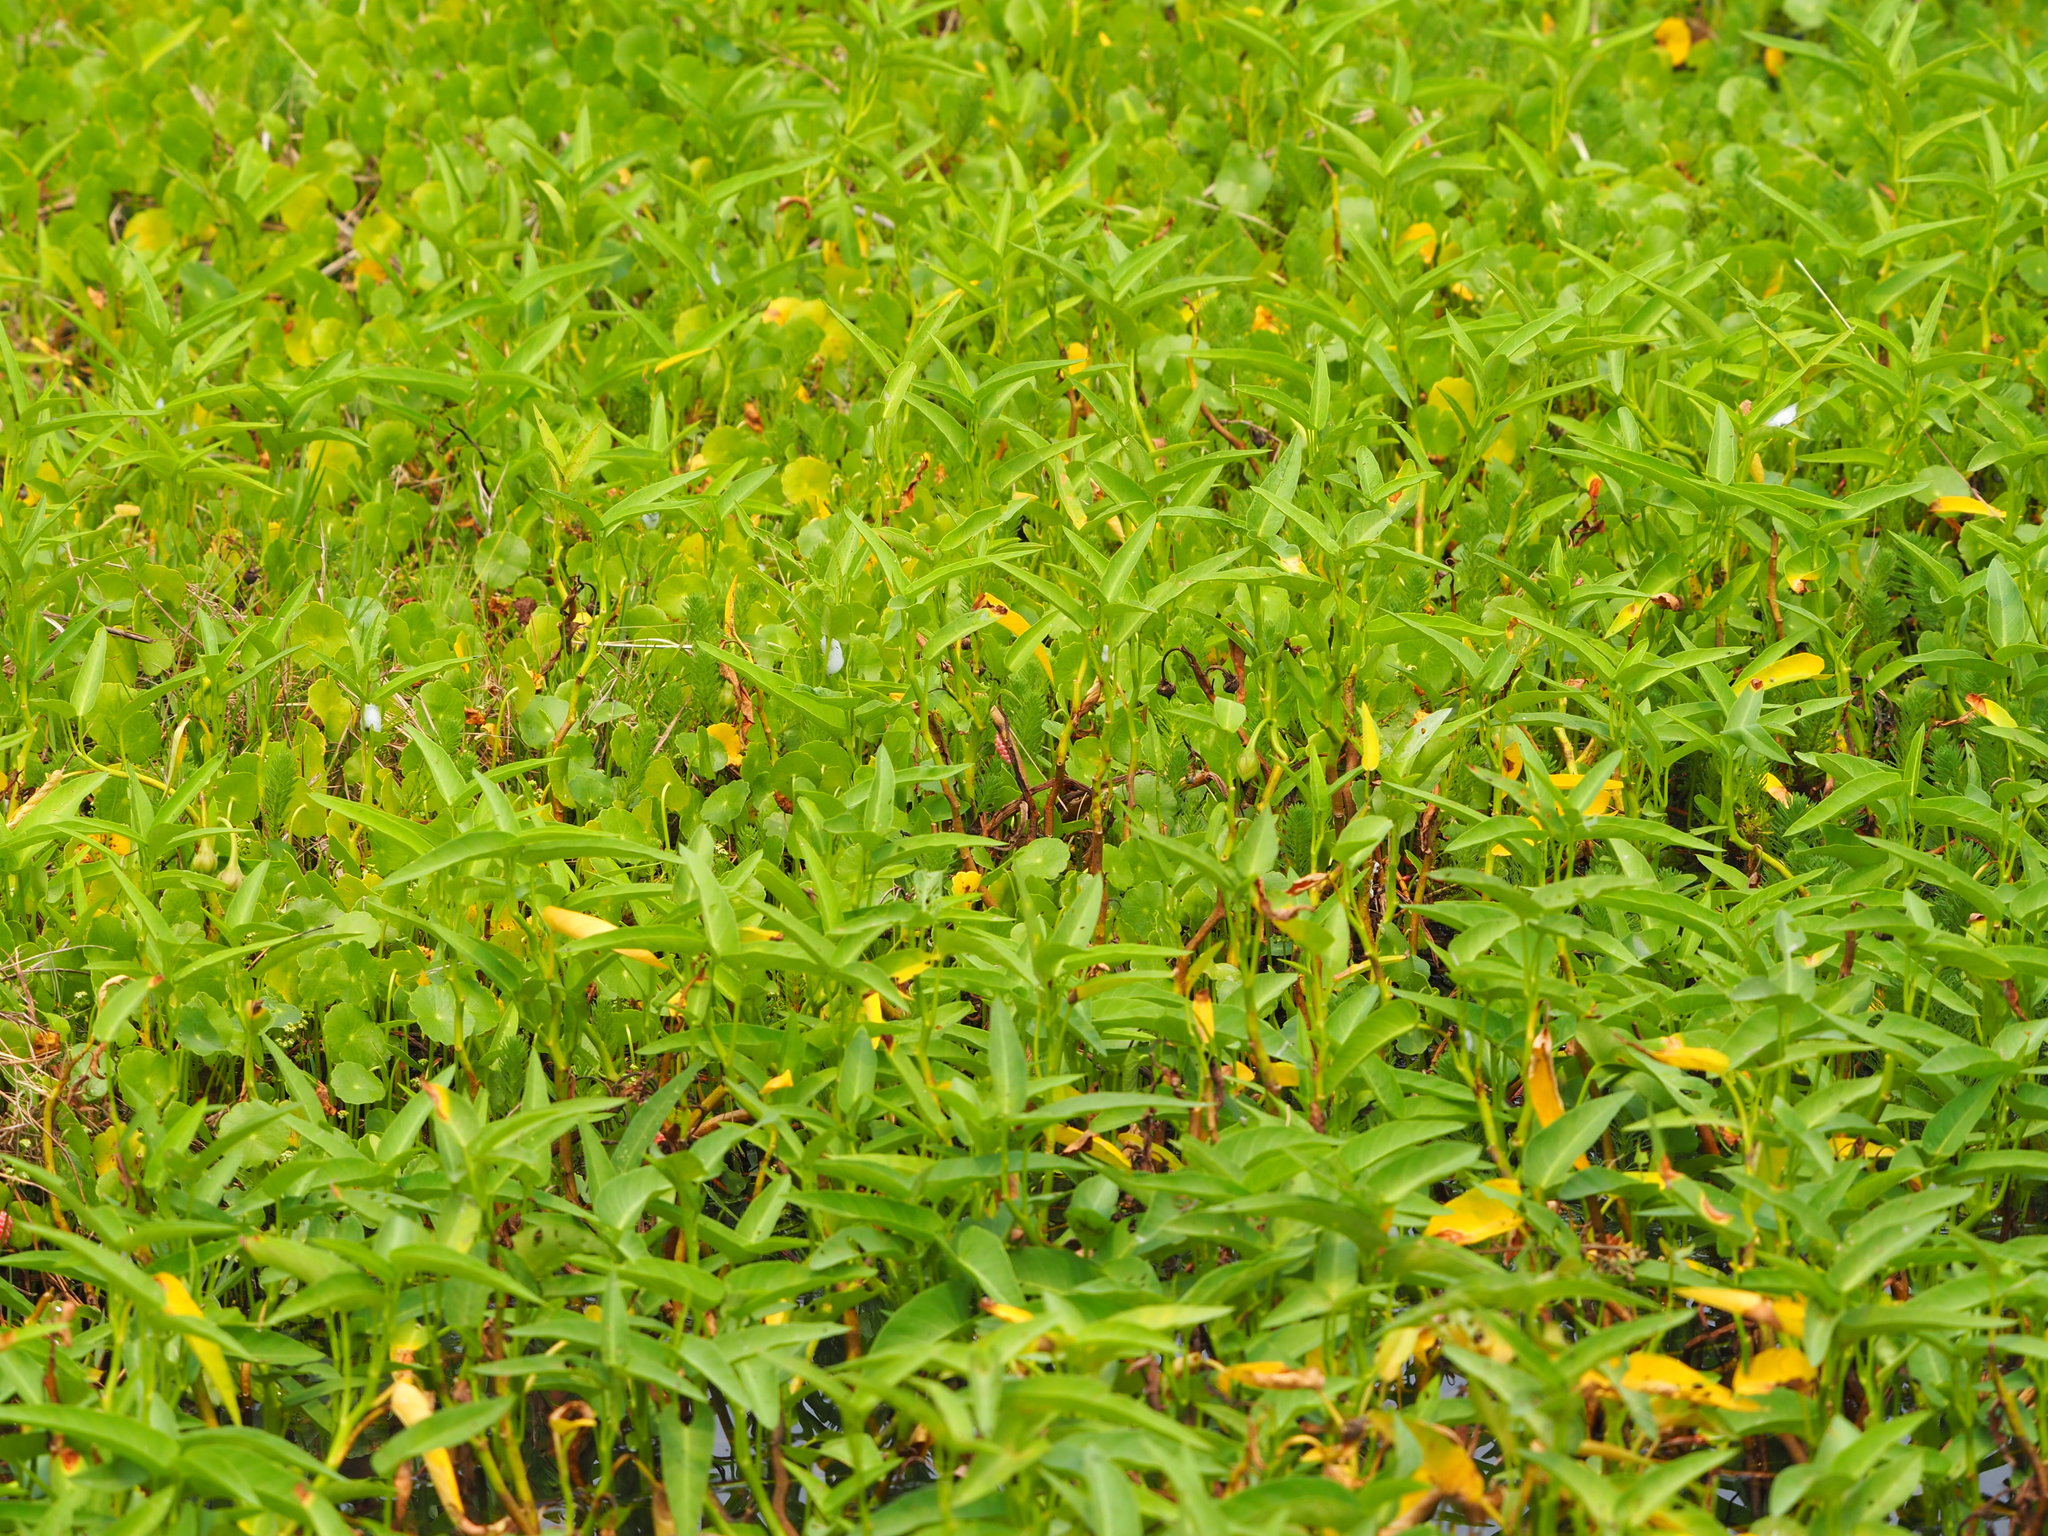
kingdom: Plantae
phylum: Tracheophyta
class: Magnoliopsida
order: Solanales
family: Convolvulaceae
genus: Ipomoea
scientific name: Ipomoea aquatica
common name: Swamp morning-glory
